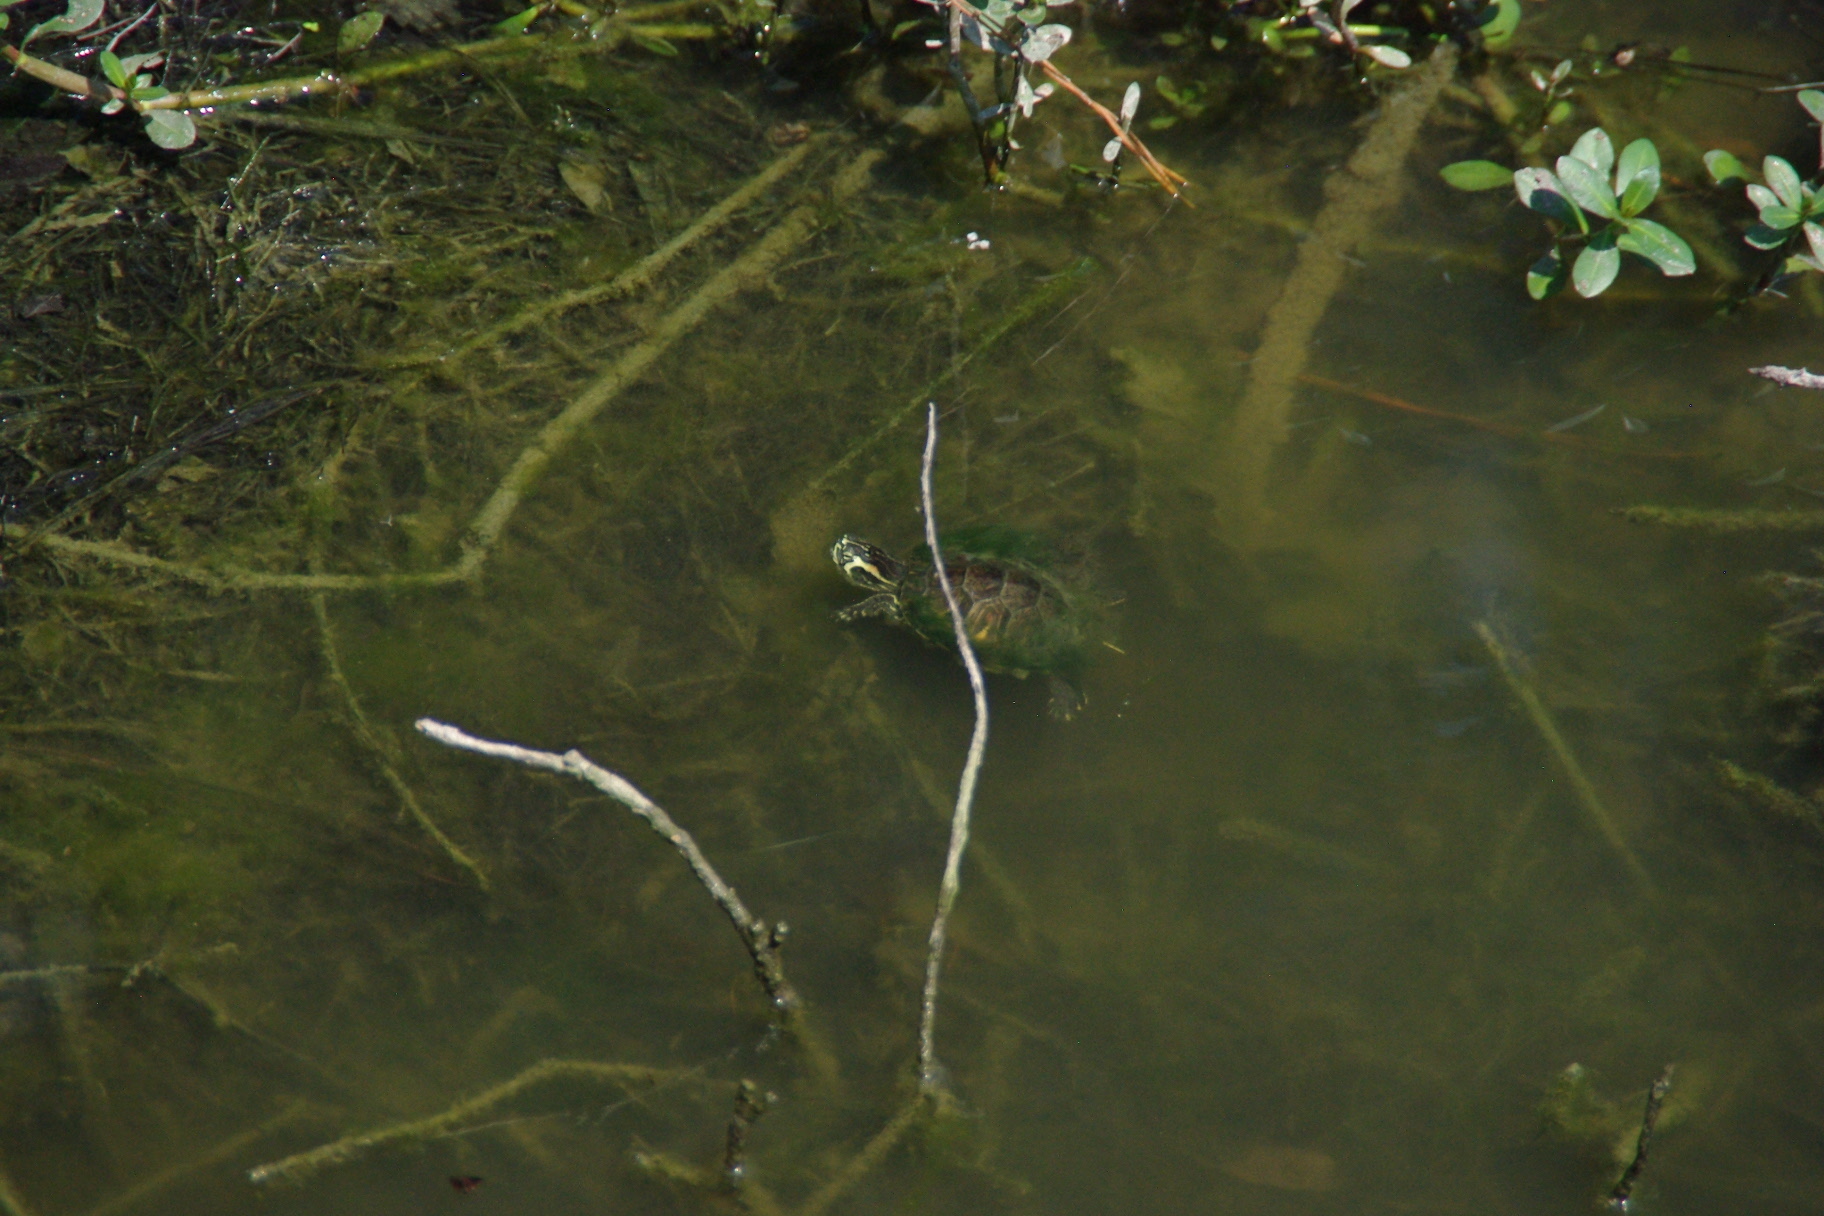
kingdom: Animalia
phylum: Chordata
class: Testudines
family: Emydidae
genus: Trachemys
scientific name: Trachemys scripta
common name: Slider
